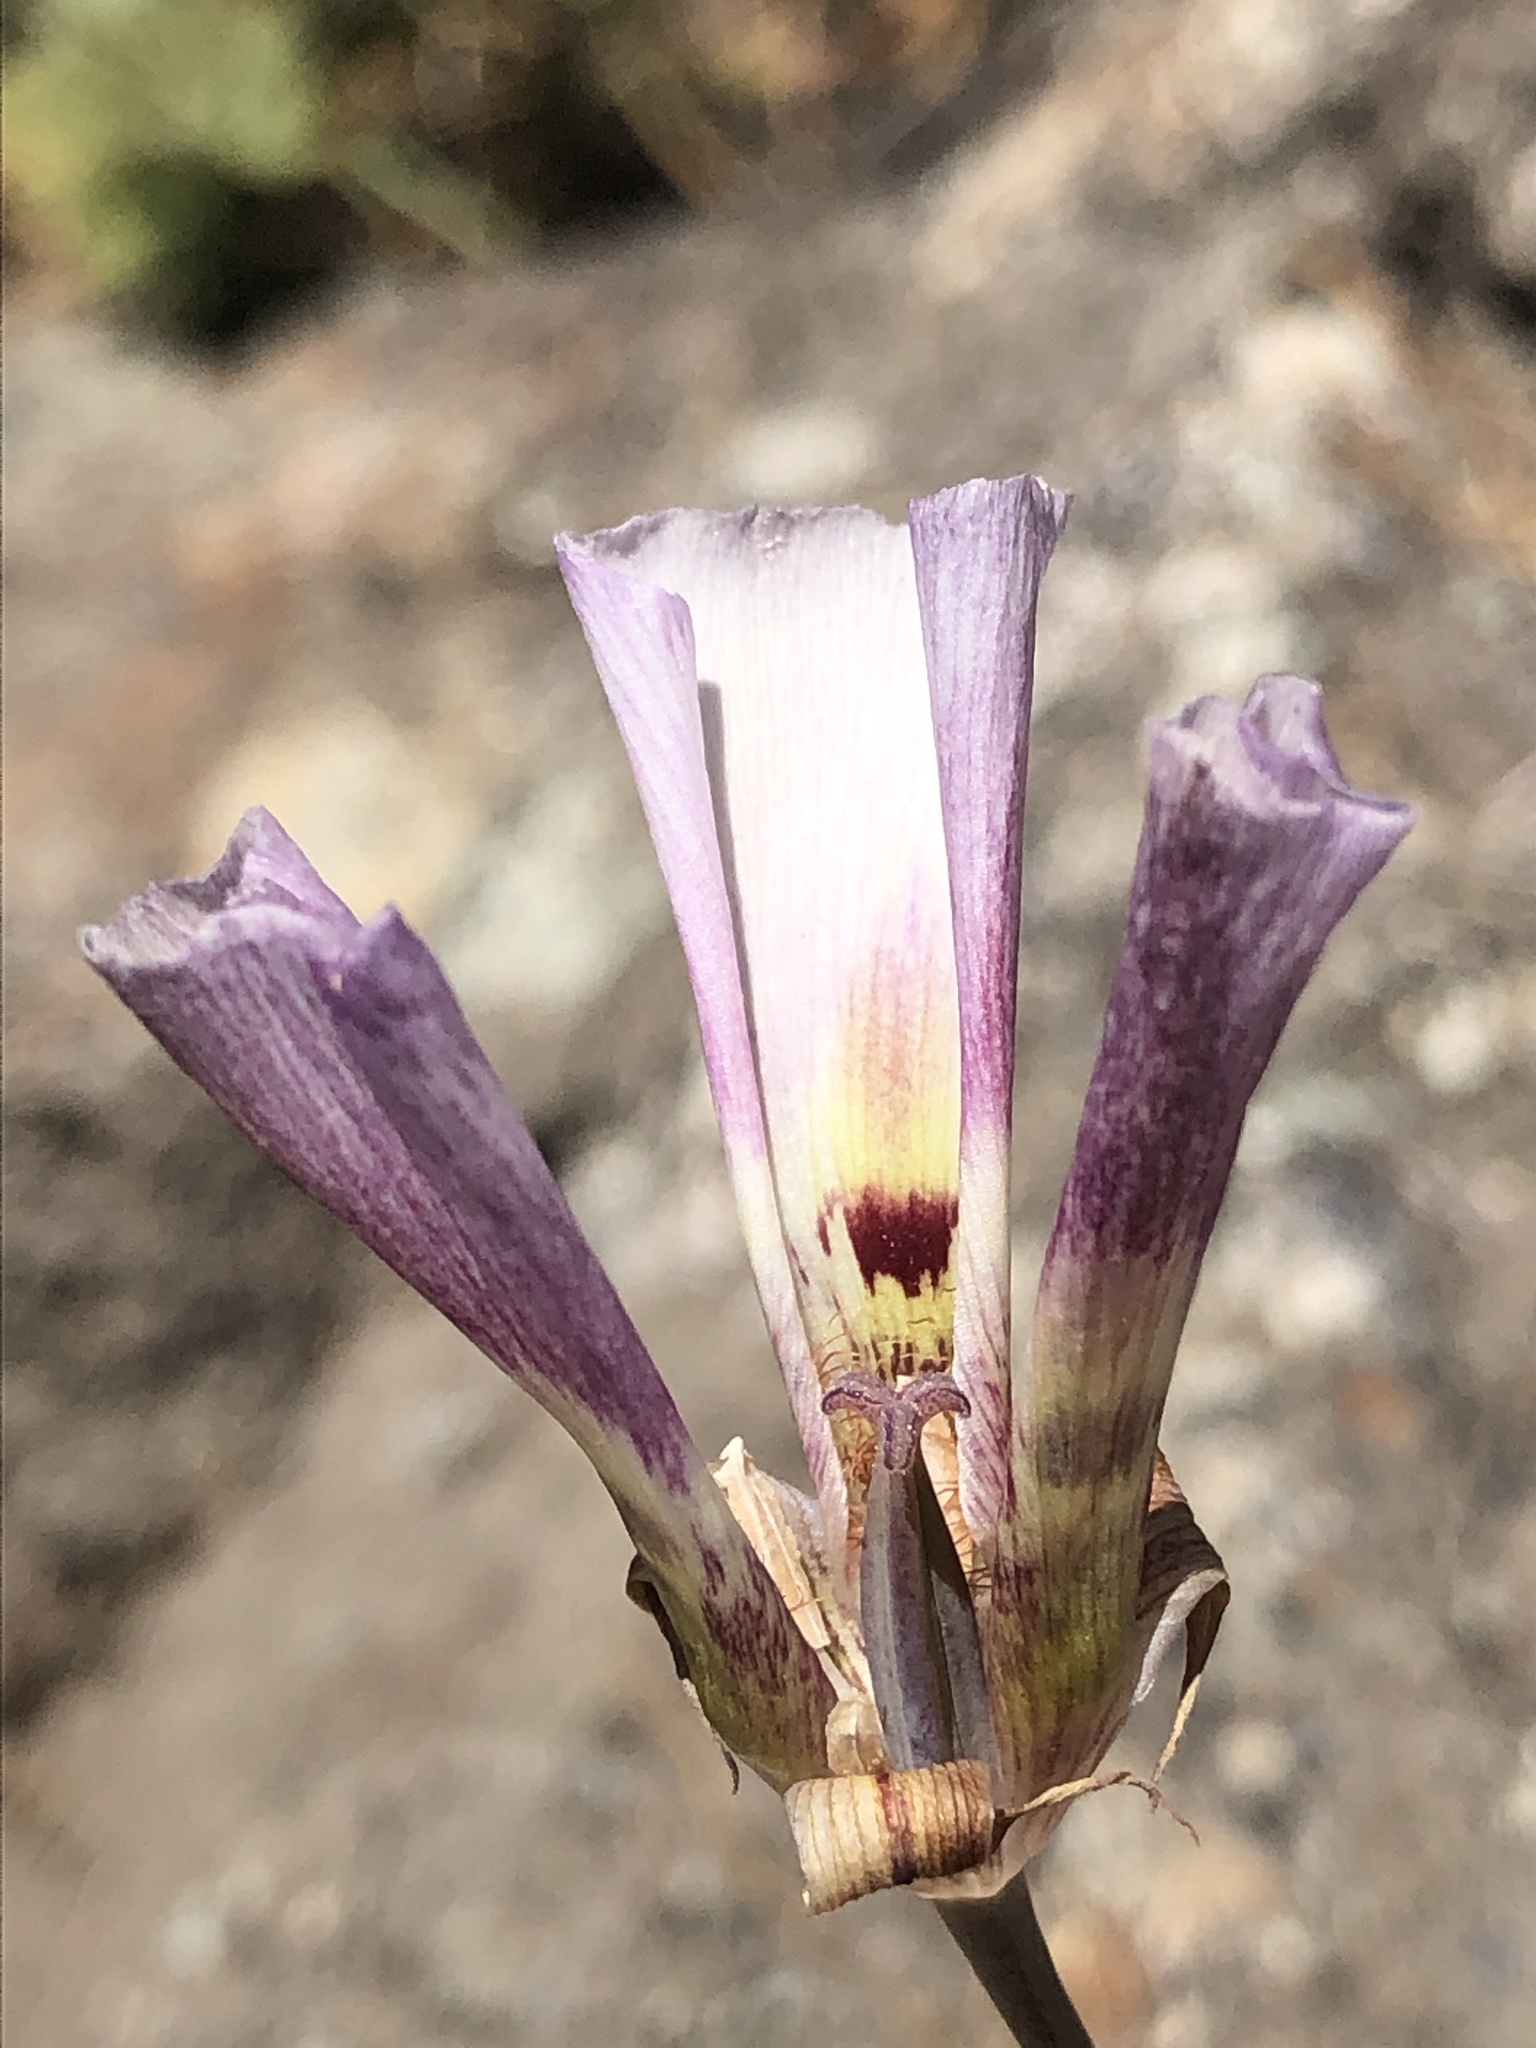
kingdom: Plantae
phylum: Tracheophyta
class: Liliopsida
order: Liliales
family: Liliaceae
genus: Calochortus
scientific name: Calochortus argillosus
